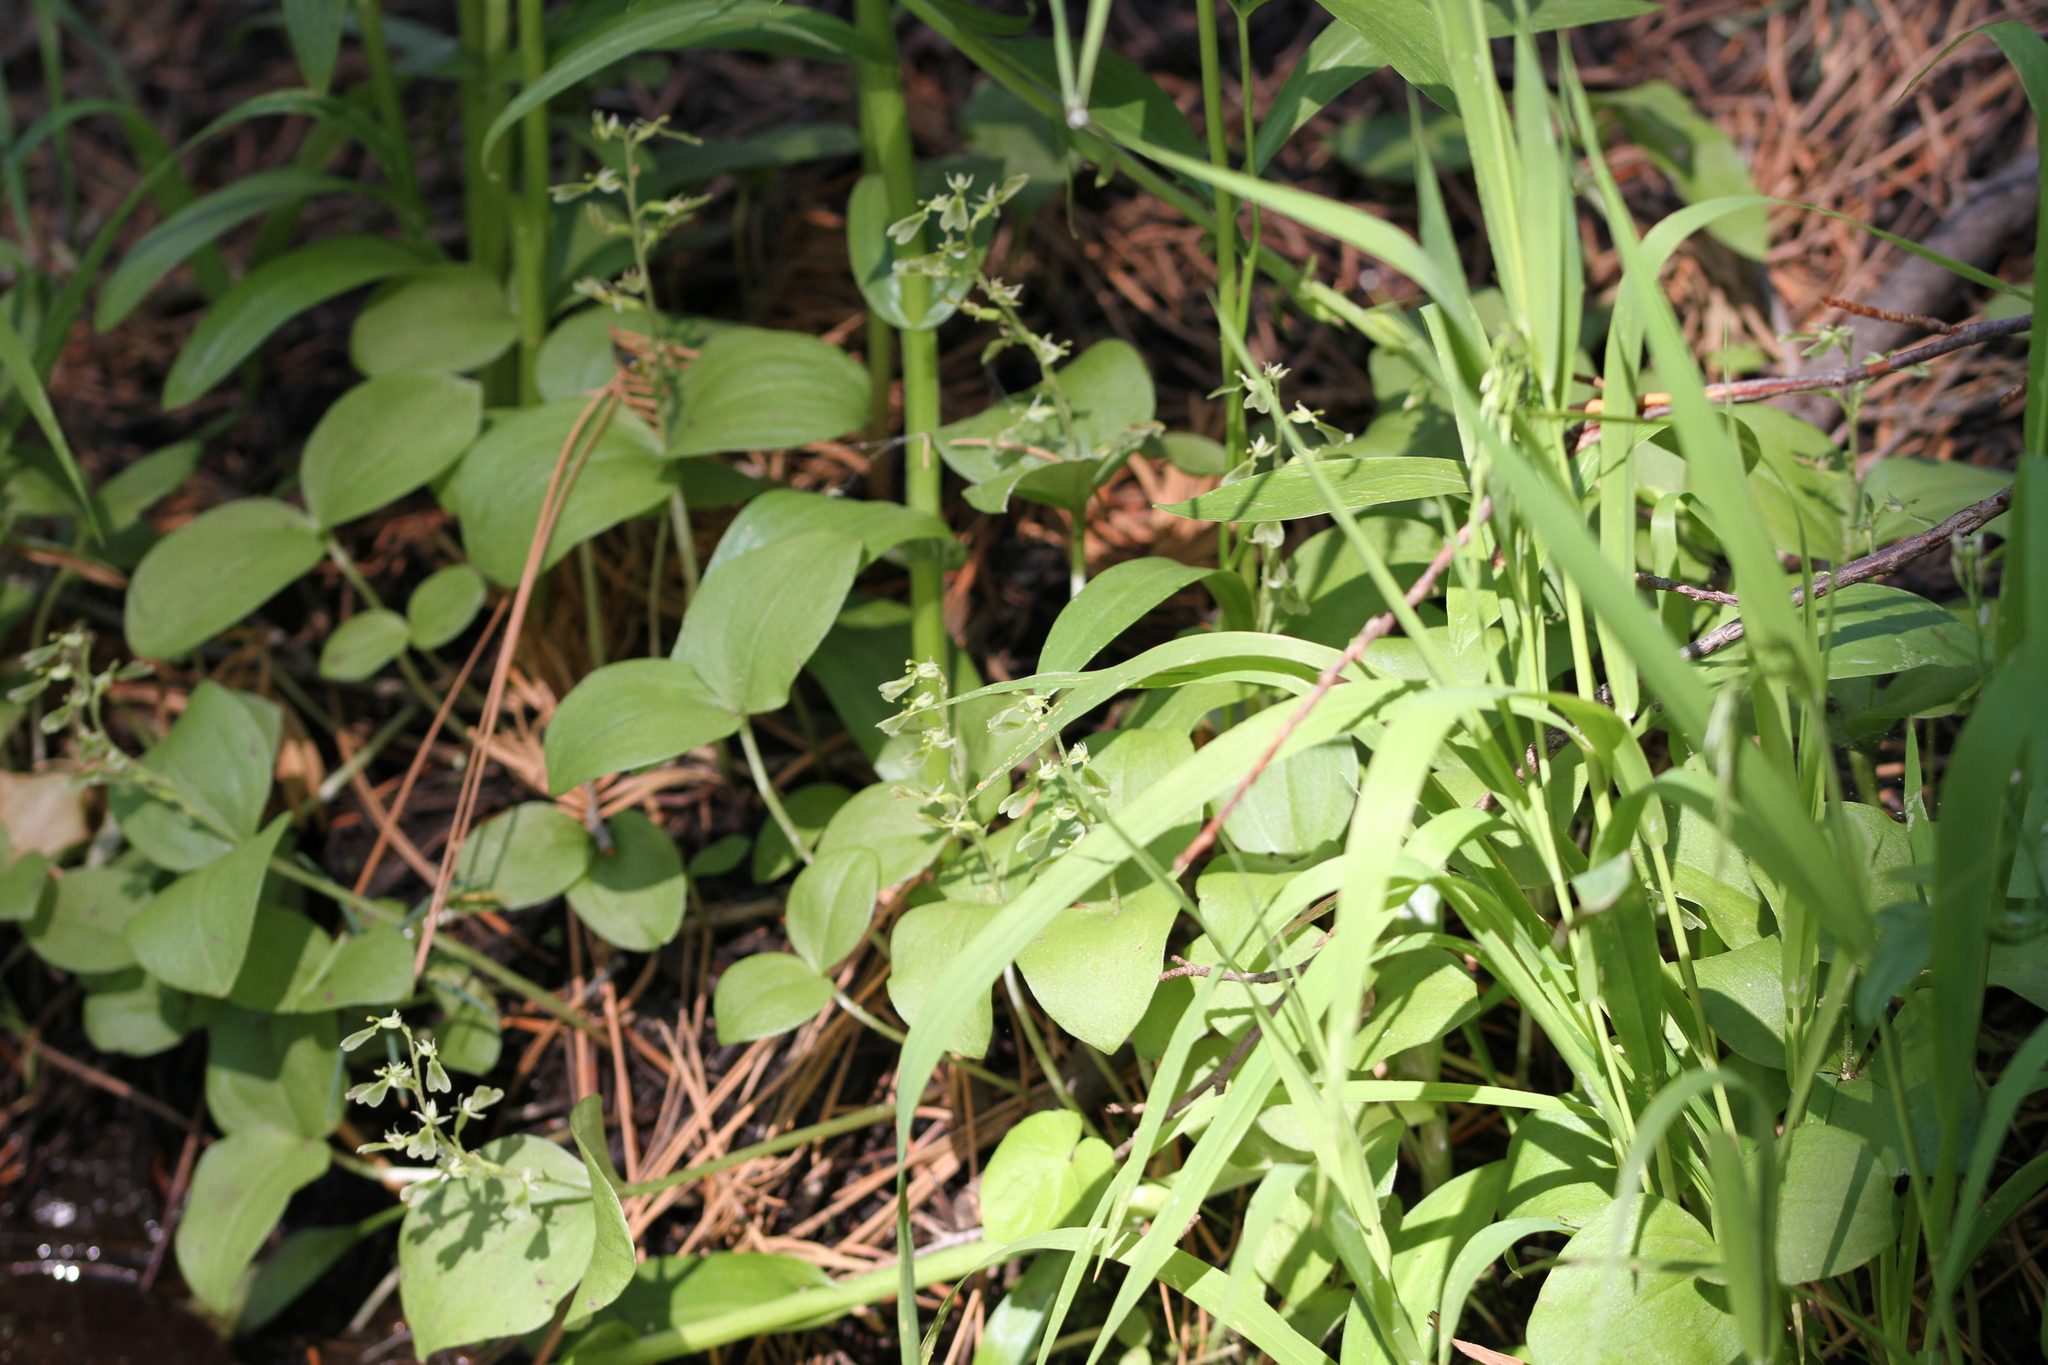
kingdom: Plantae
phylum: Tracheophyta
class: Liliopsida
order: Asparagales
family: Orchidaceae
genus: Neottia
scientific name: Neottia convallarioides
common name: Broadleaf twayblade
